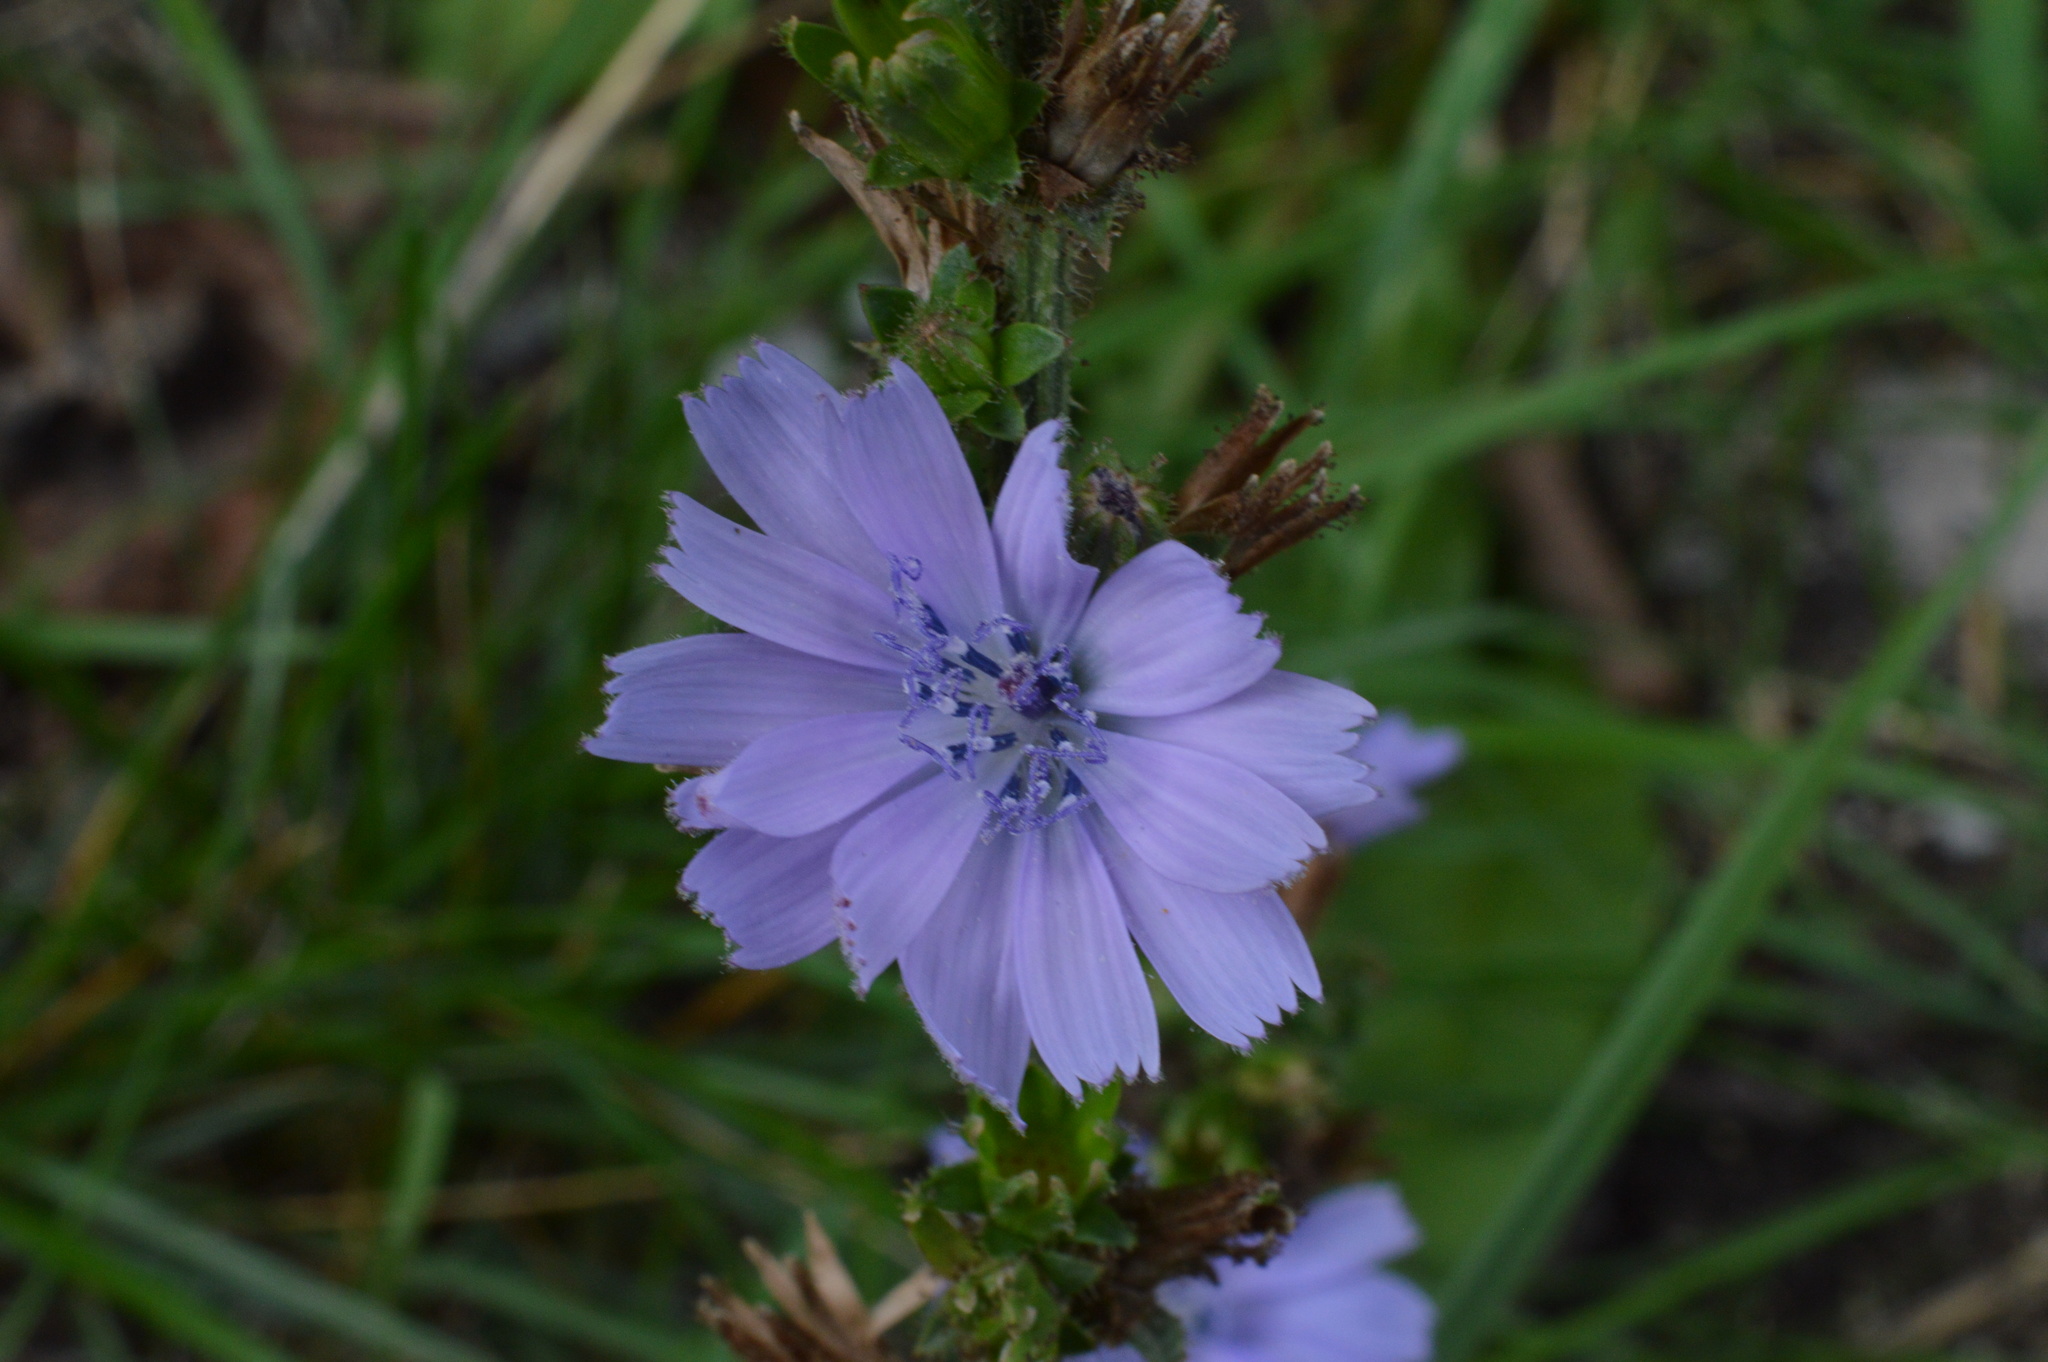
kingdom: Plantae
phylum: Tracheophyta
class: Magnoliopsida
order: Asterales
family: Asteraceae
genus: Cichorium
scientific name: Cichorium intybus
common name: Chicory
